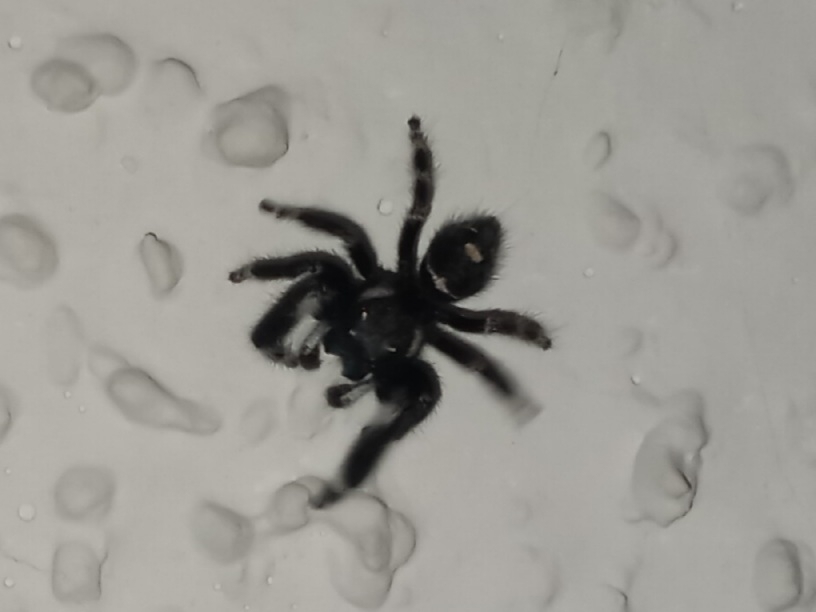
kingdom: Animalia
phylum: Arthropoda
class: Arachnida
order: Araneae
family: Salticidae
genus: Phidippus
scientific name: Phidippus audax
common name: Bold jumper
